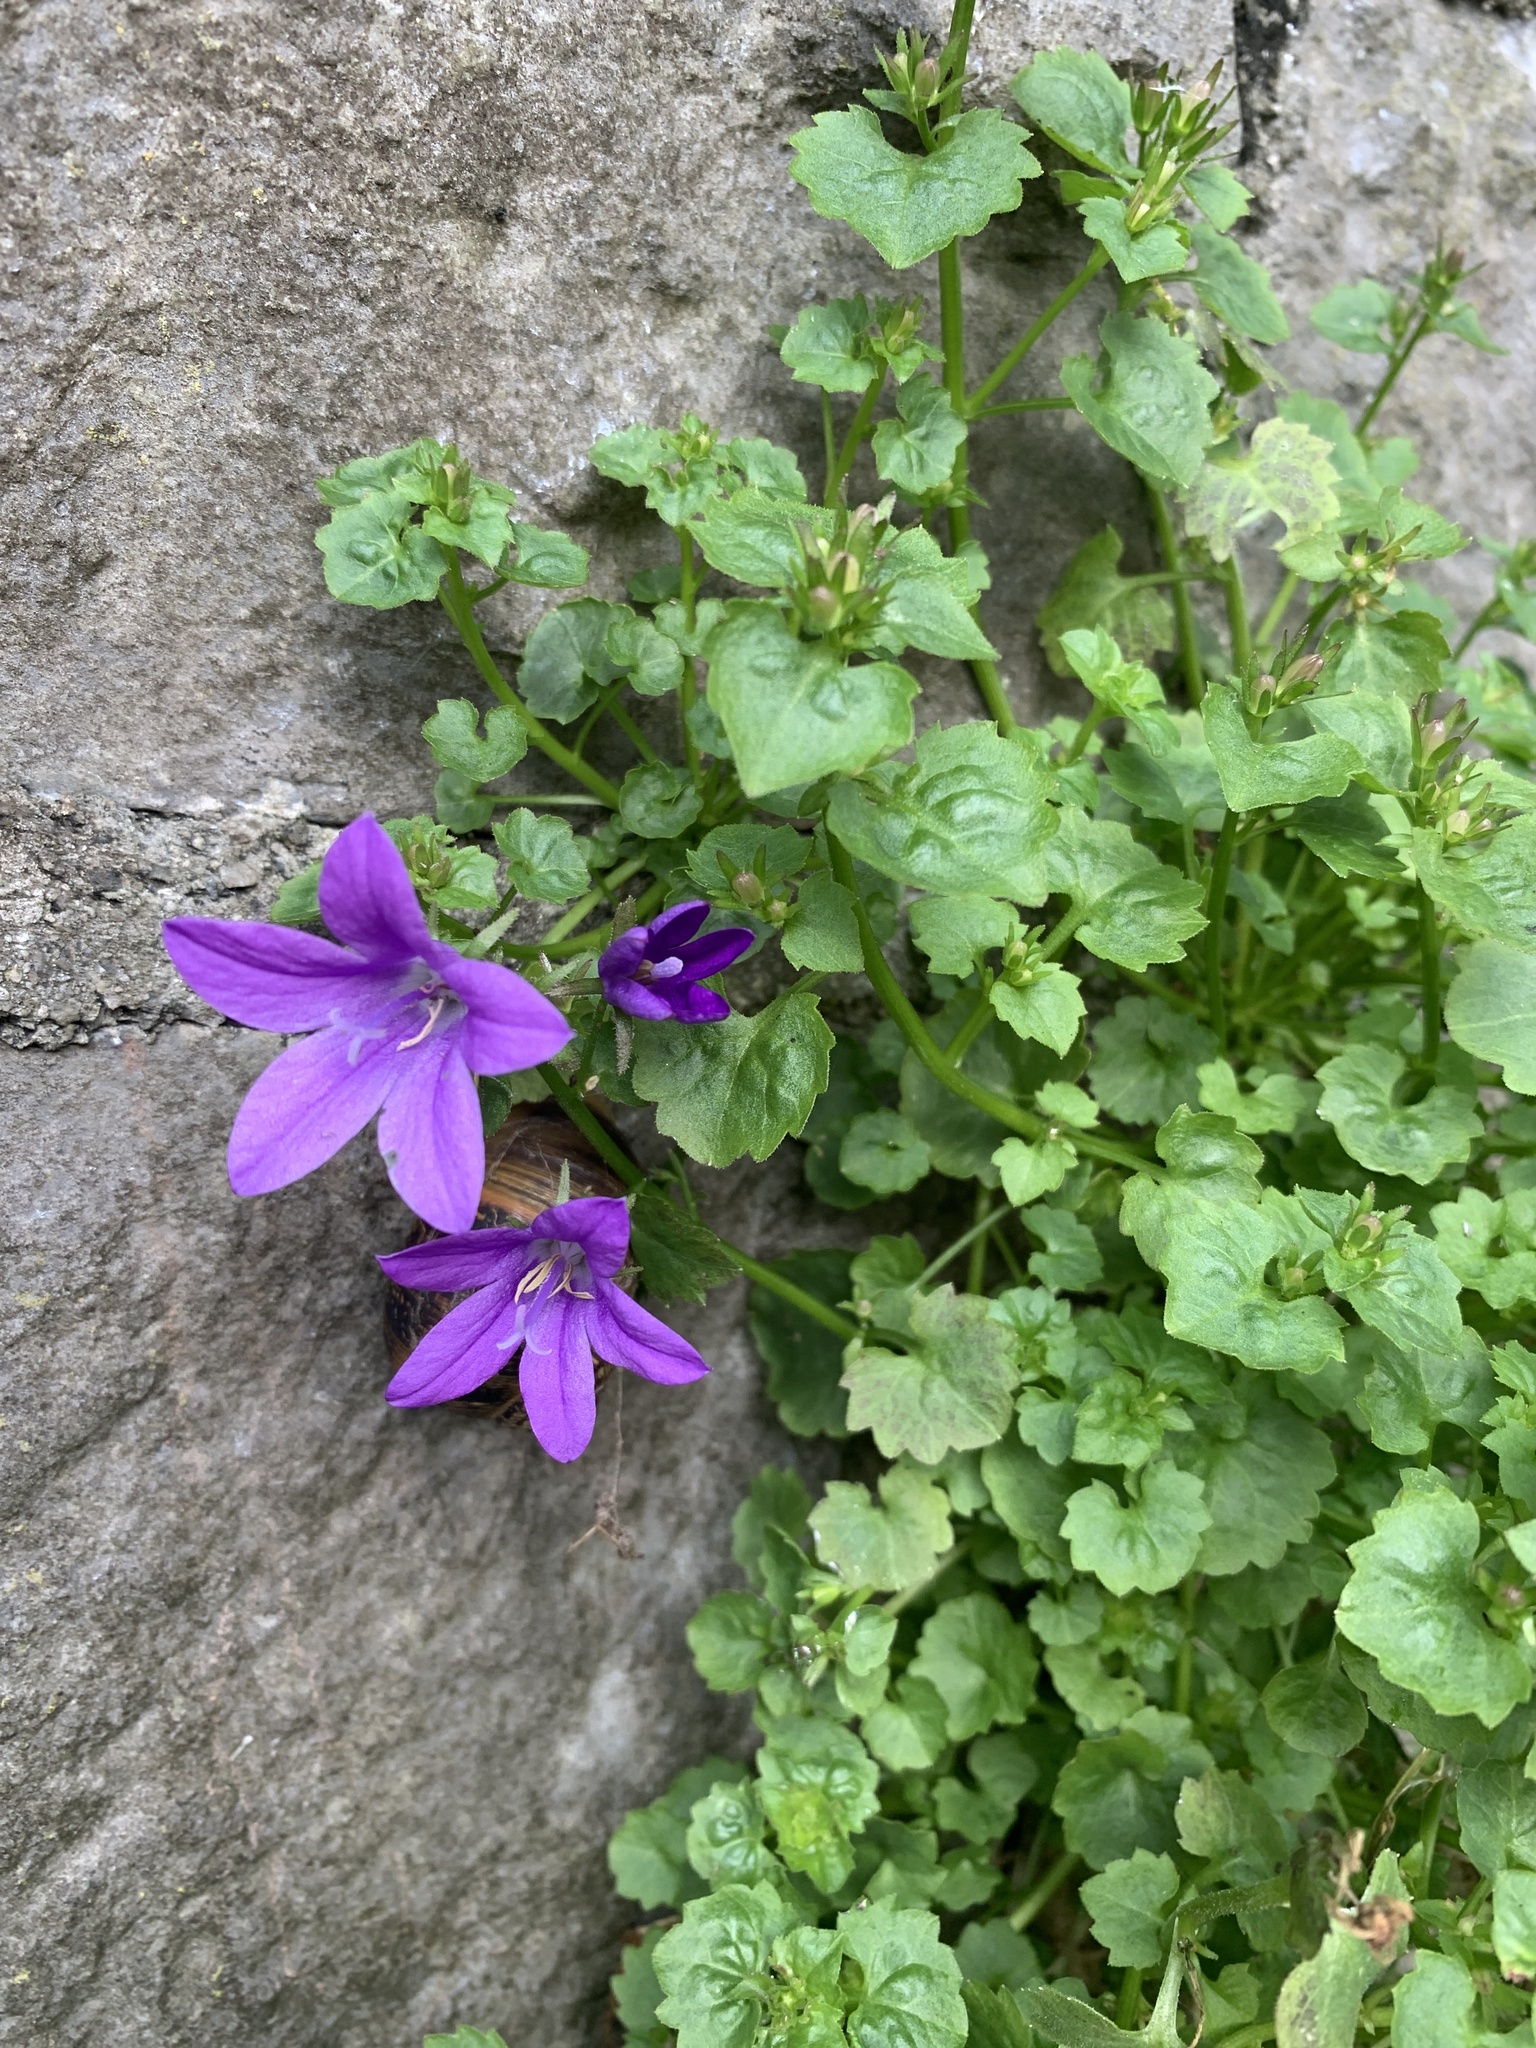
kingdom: Plantae
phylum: Tracheophyta
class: Magnoliopsida
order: Asterales
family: Campanulaceae
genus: Campanula
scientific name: Campanula portenschlagiana
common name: Adria bellflower
